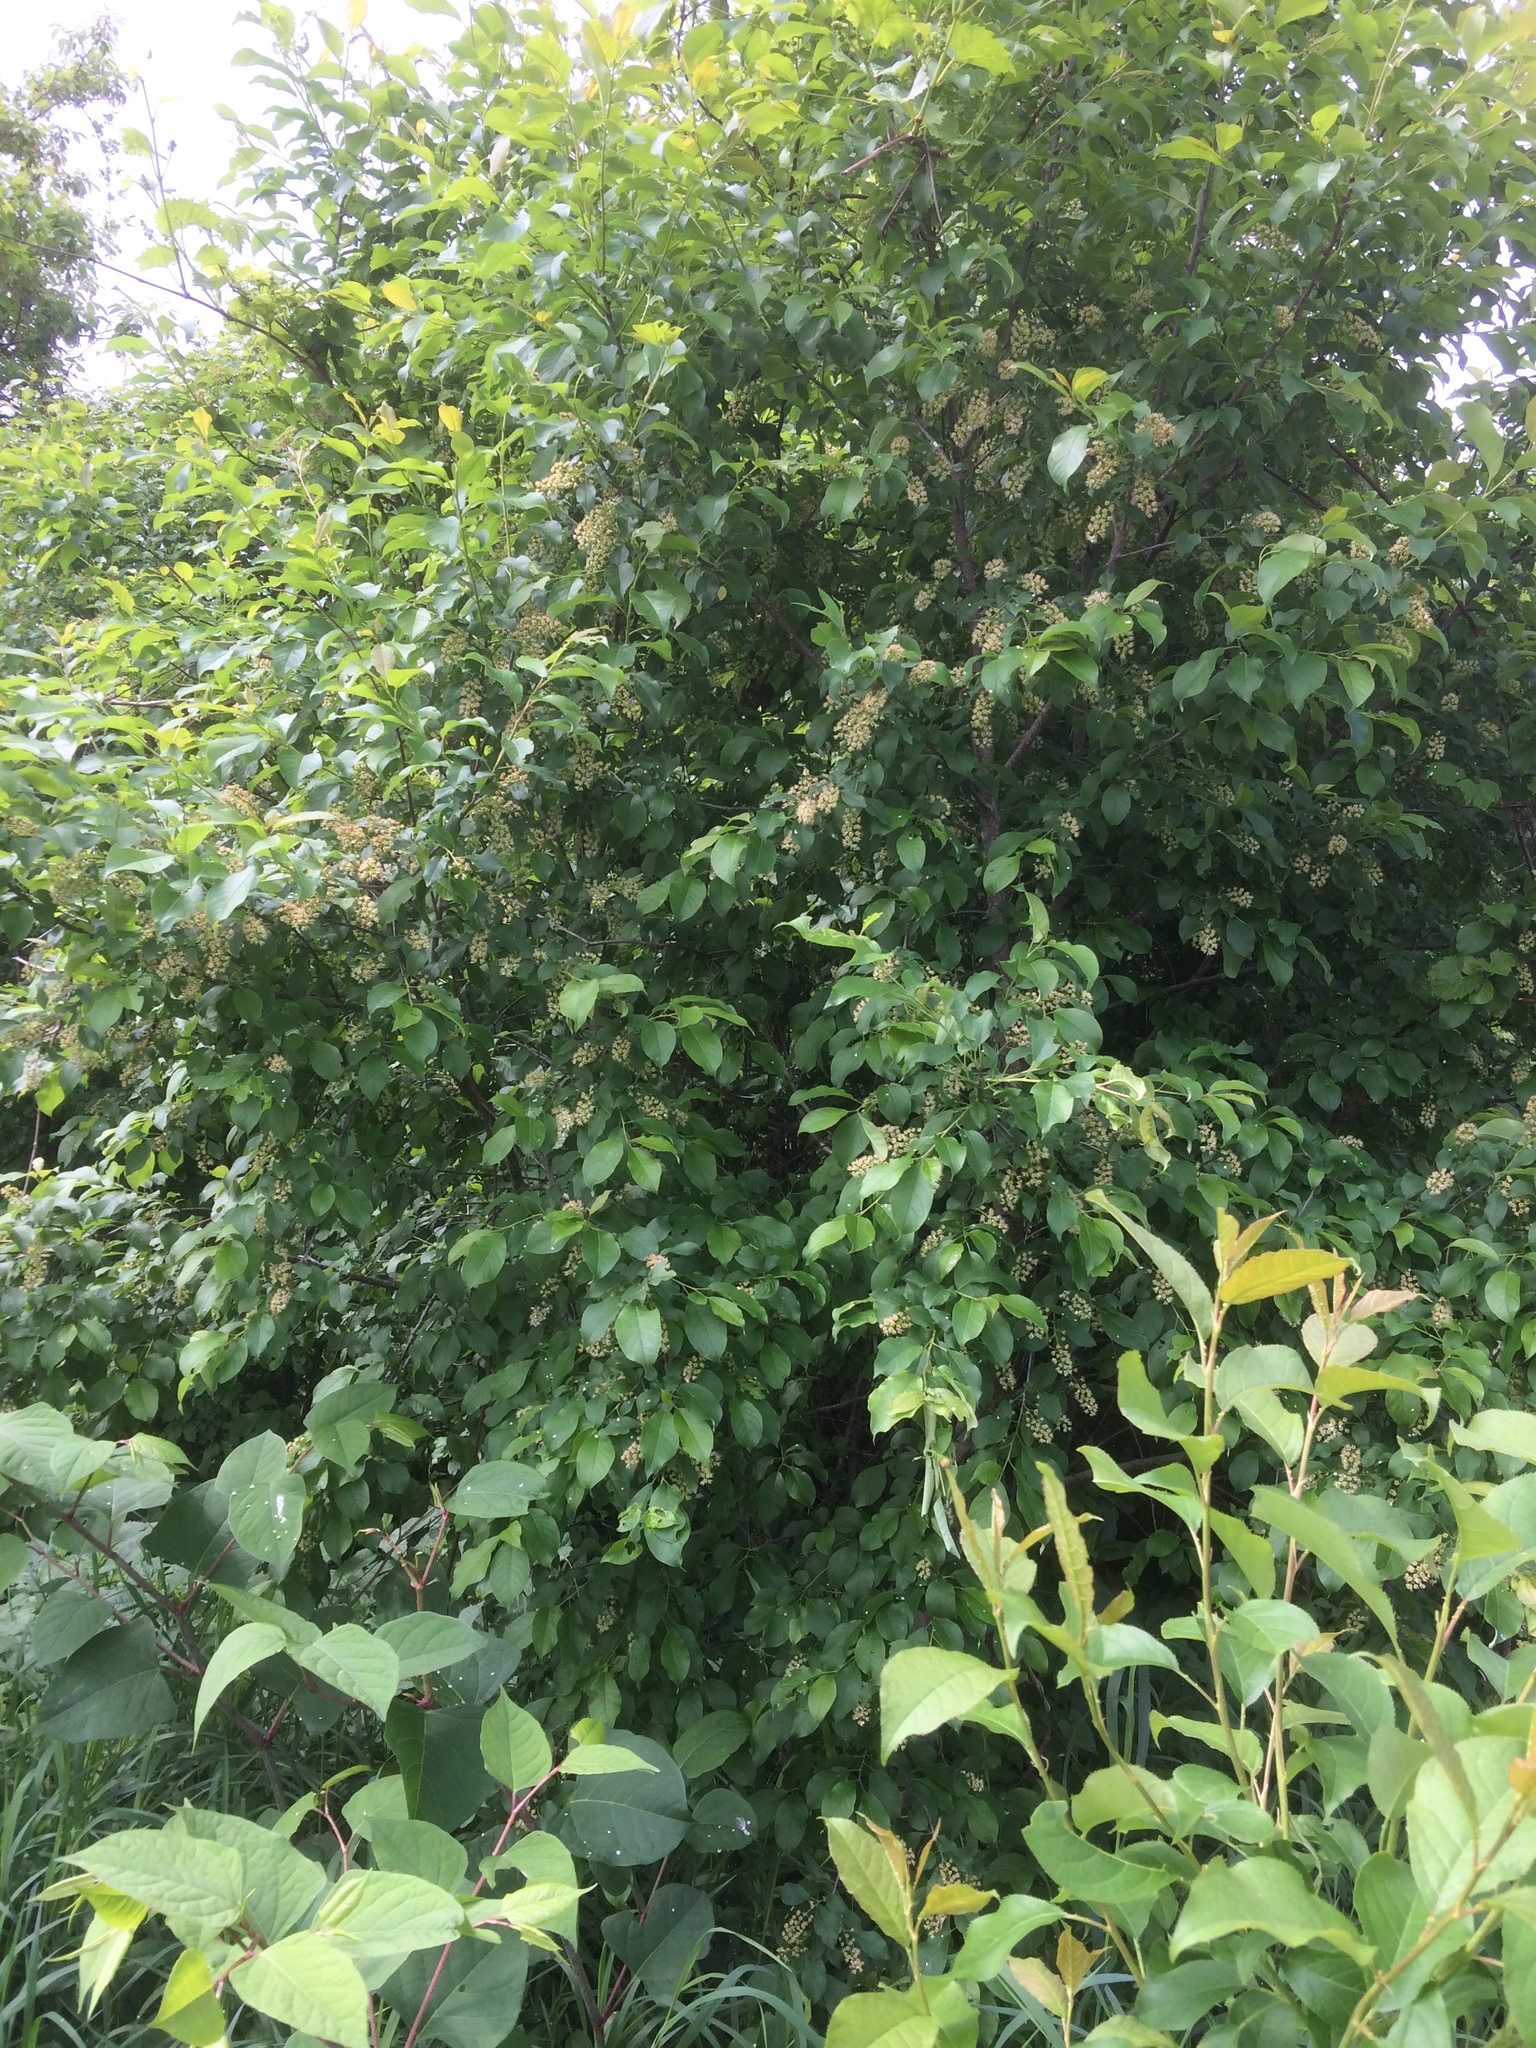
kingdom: Plantae
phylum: Tracheophyta
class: Magnoliopsida
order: Rosales
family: Rosaceae
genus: Prunus
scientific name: Prunus virginiana
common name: Chokecherry
